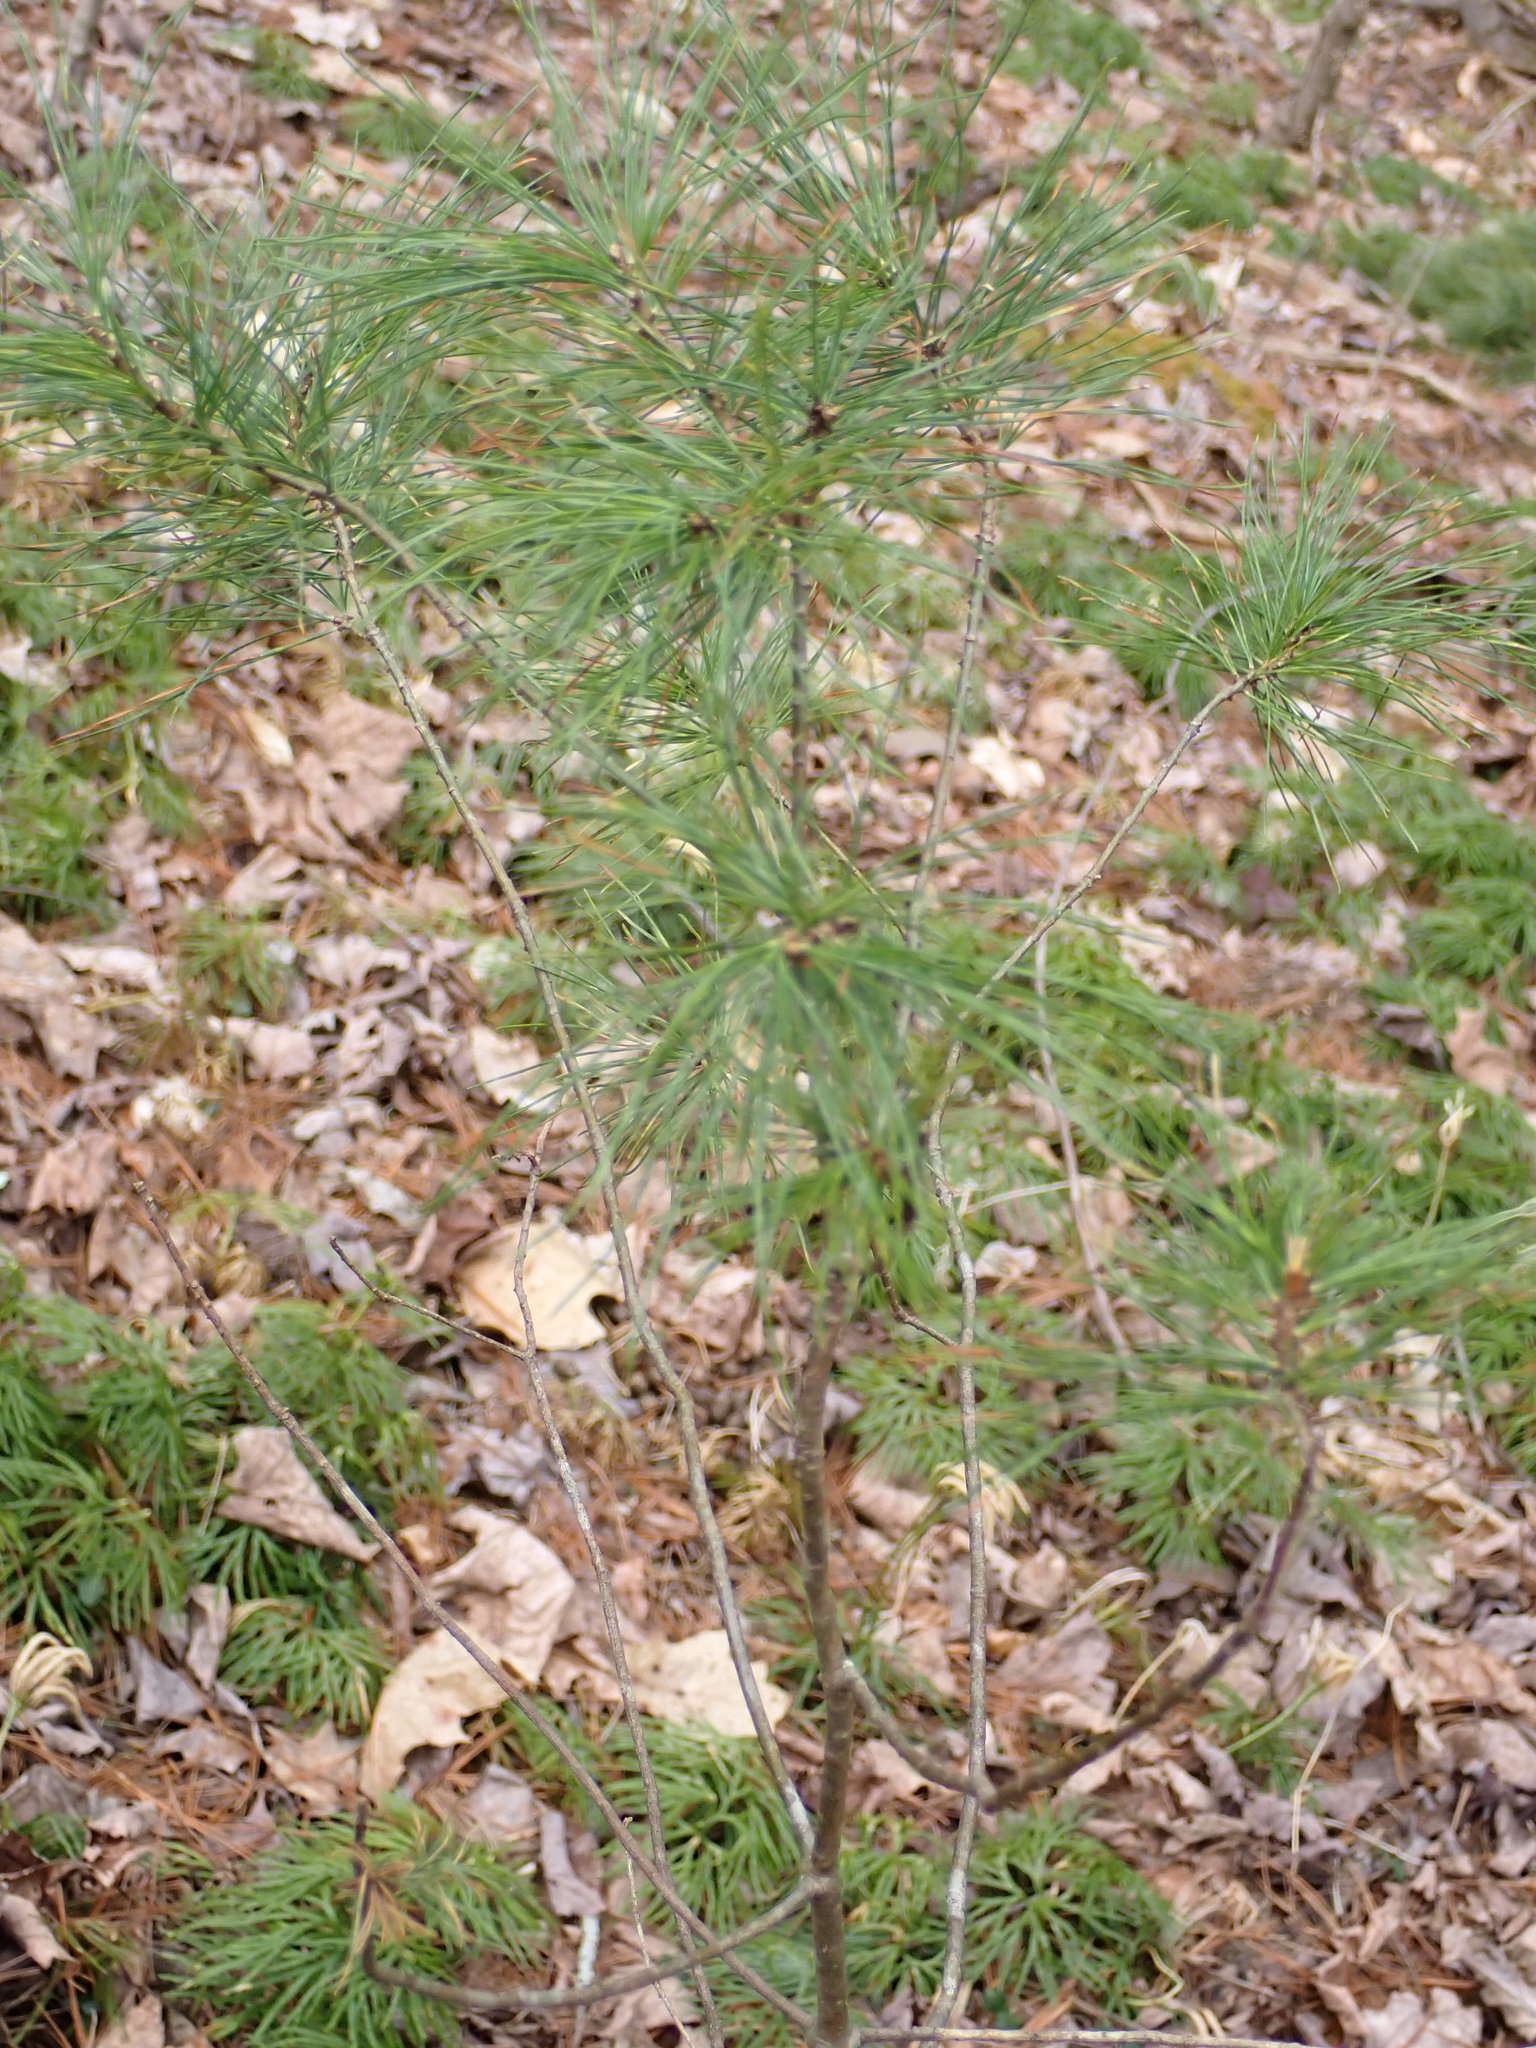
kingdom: Plantae
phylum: Tracheophyta
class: Pinopsida
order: Pinales
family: Pinaceae
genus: Pinus
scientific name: Pinus strobus
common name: Weymouth pine
